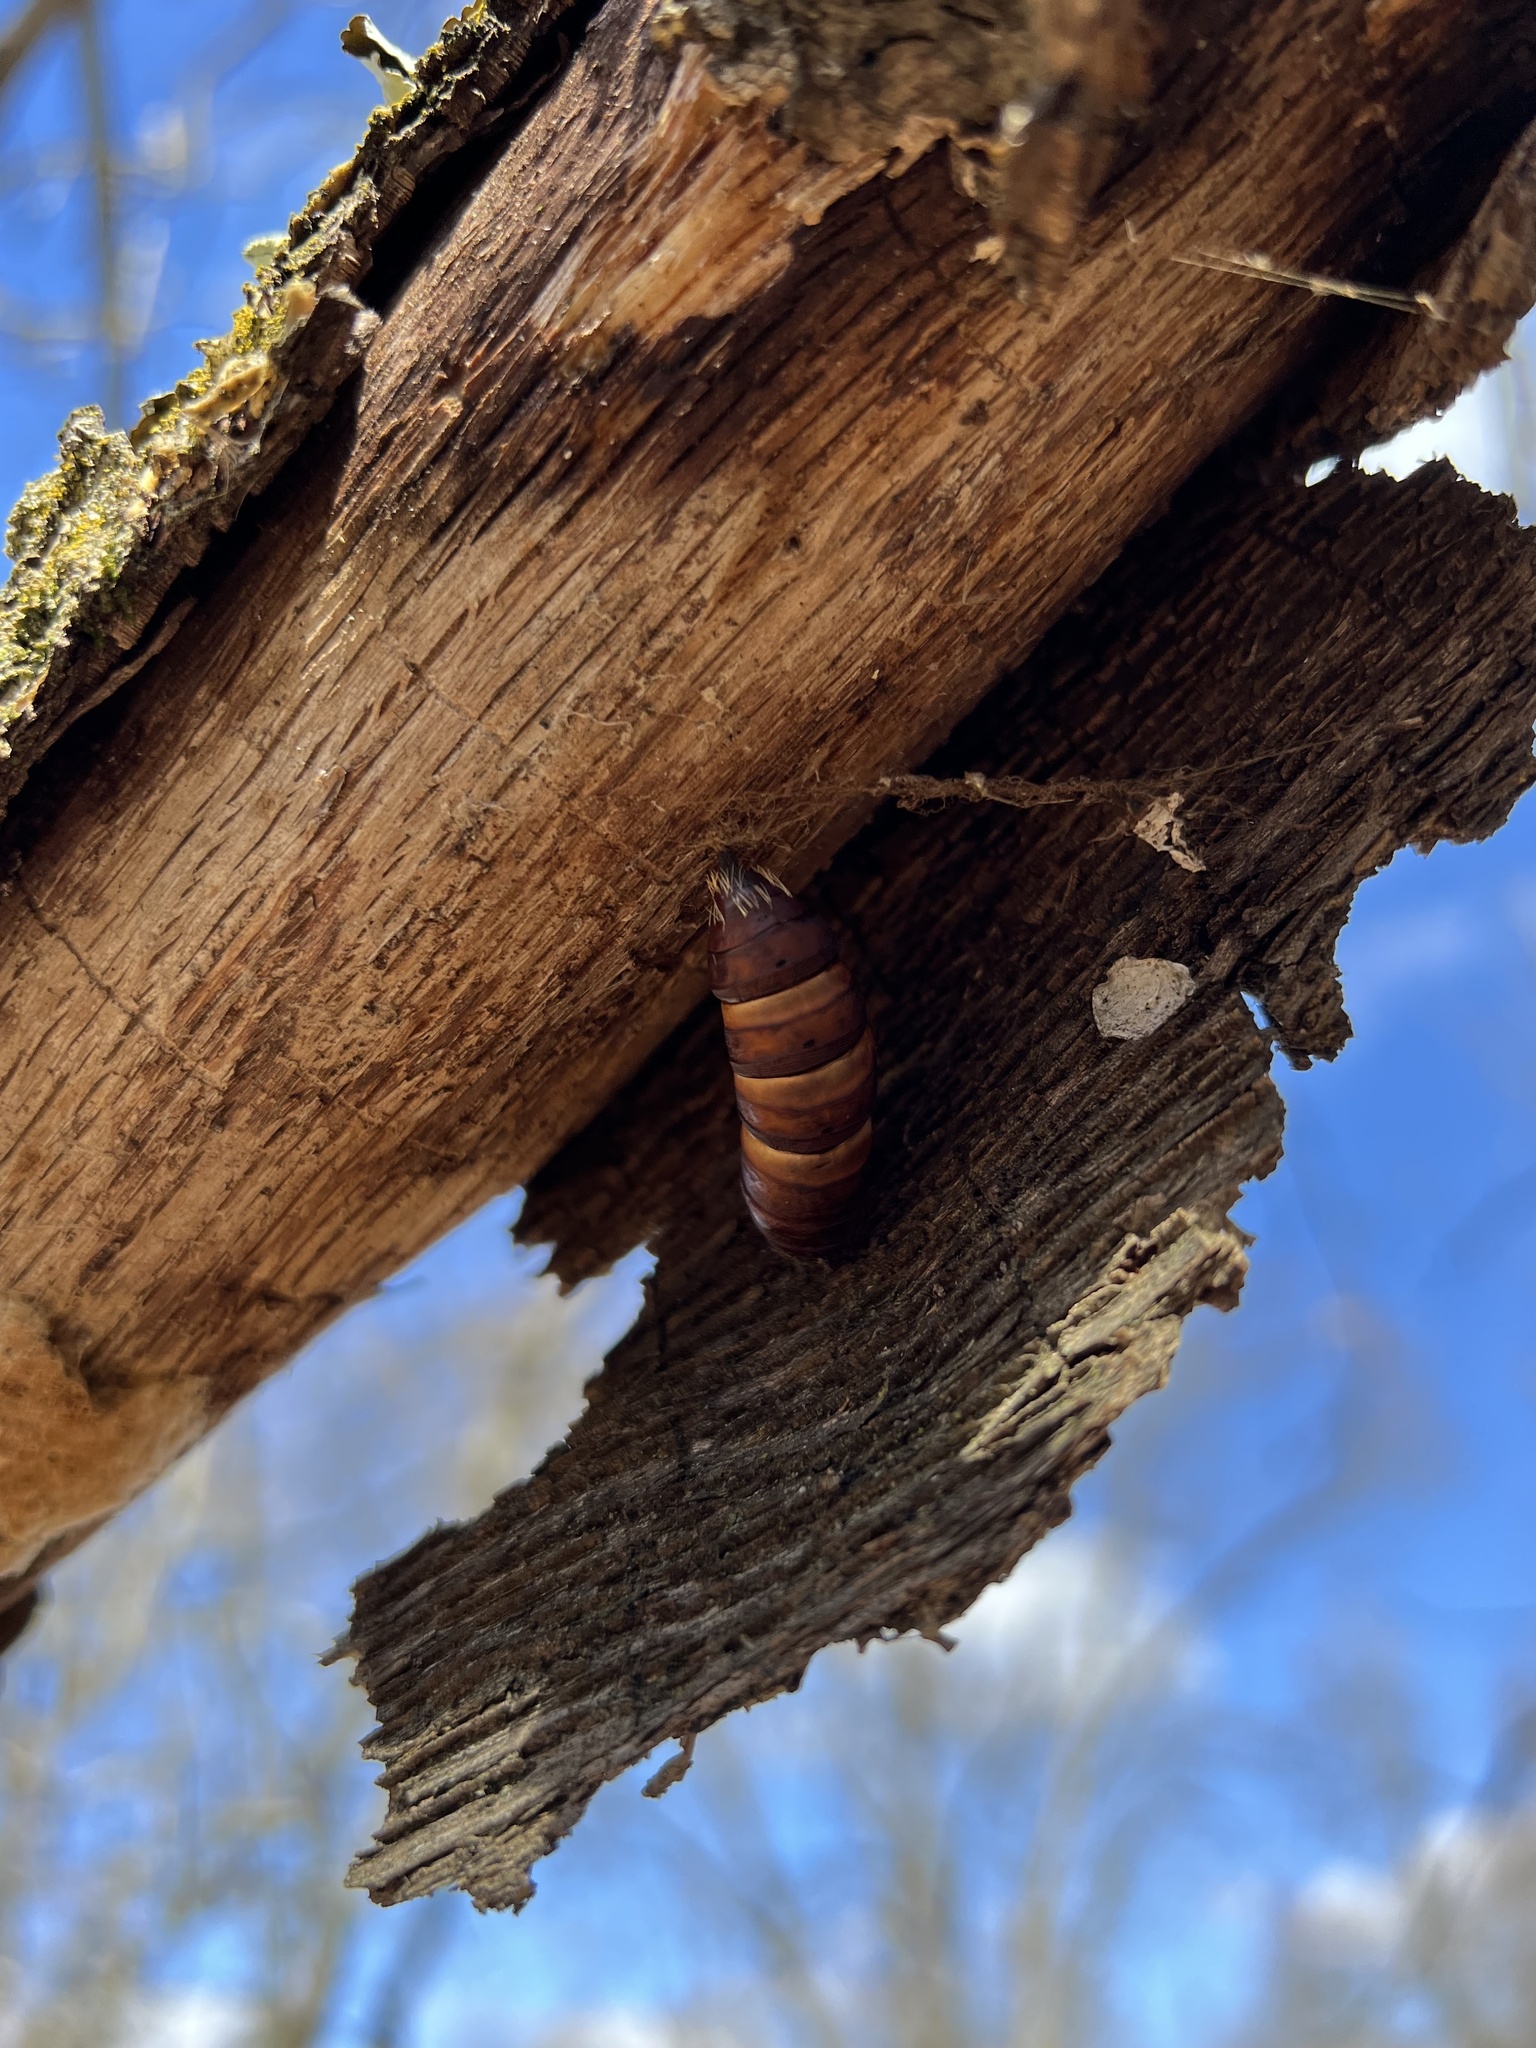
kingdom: Animalia
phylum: Arthropoda
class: Insecta
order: Lepidoptera
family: Erebidae
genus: Lymantria
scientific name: Lymantria dispar
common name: Gypsy moth
